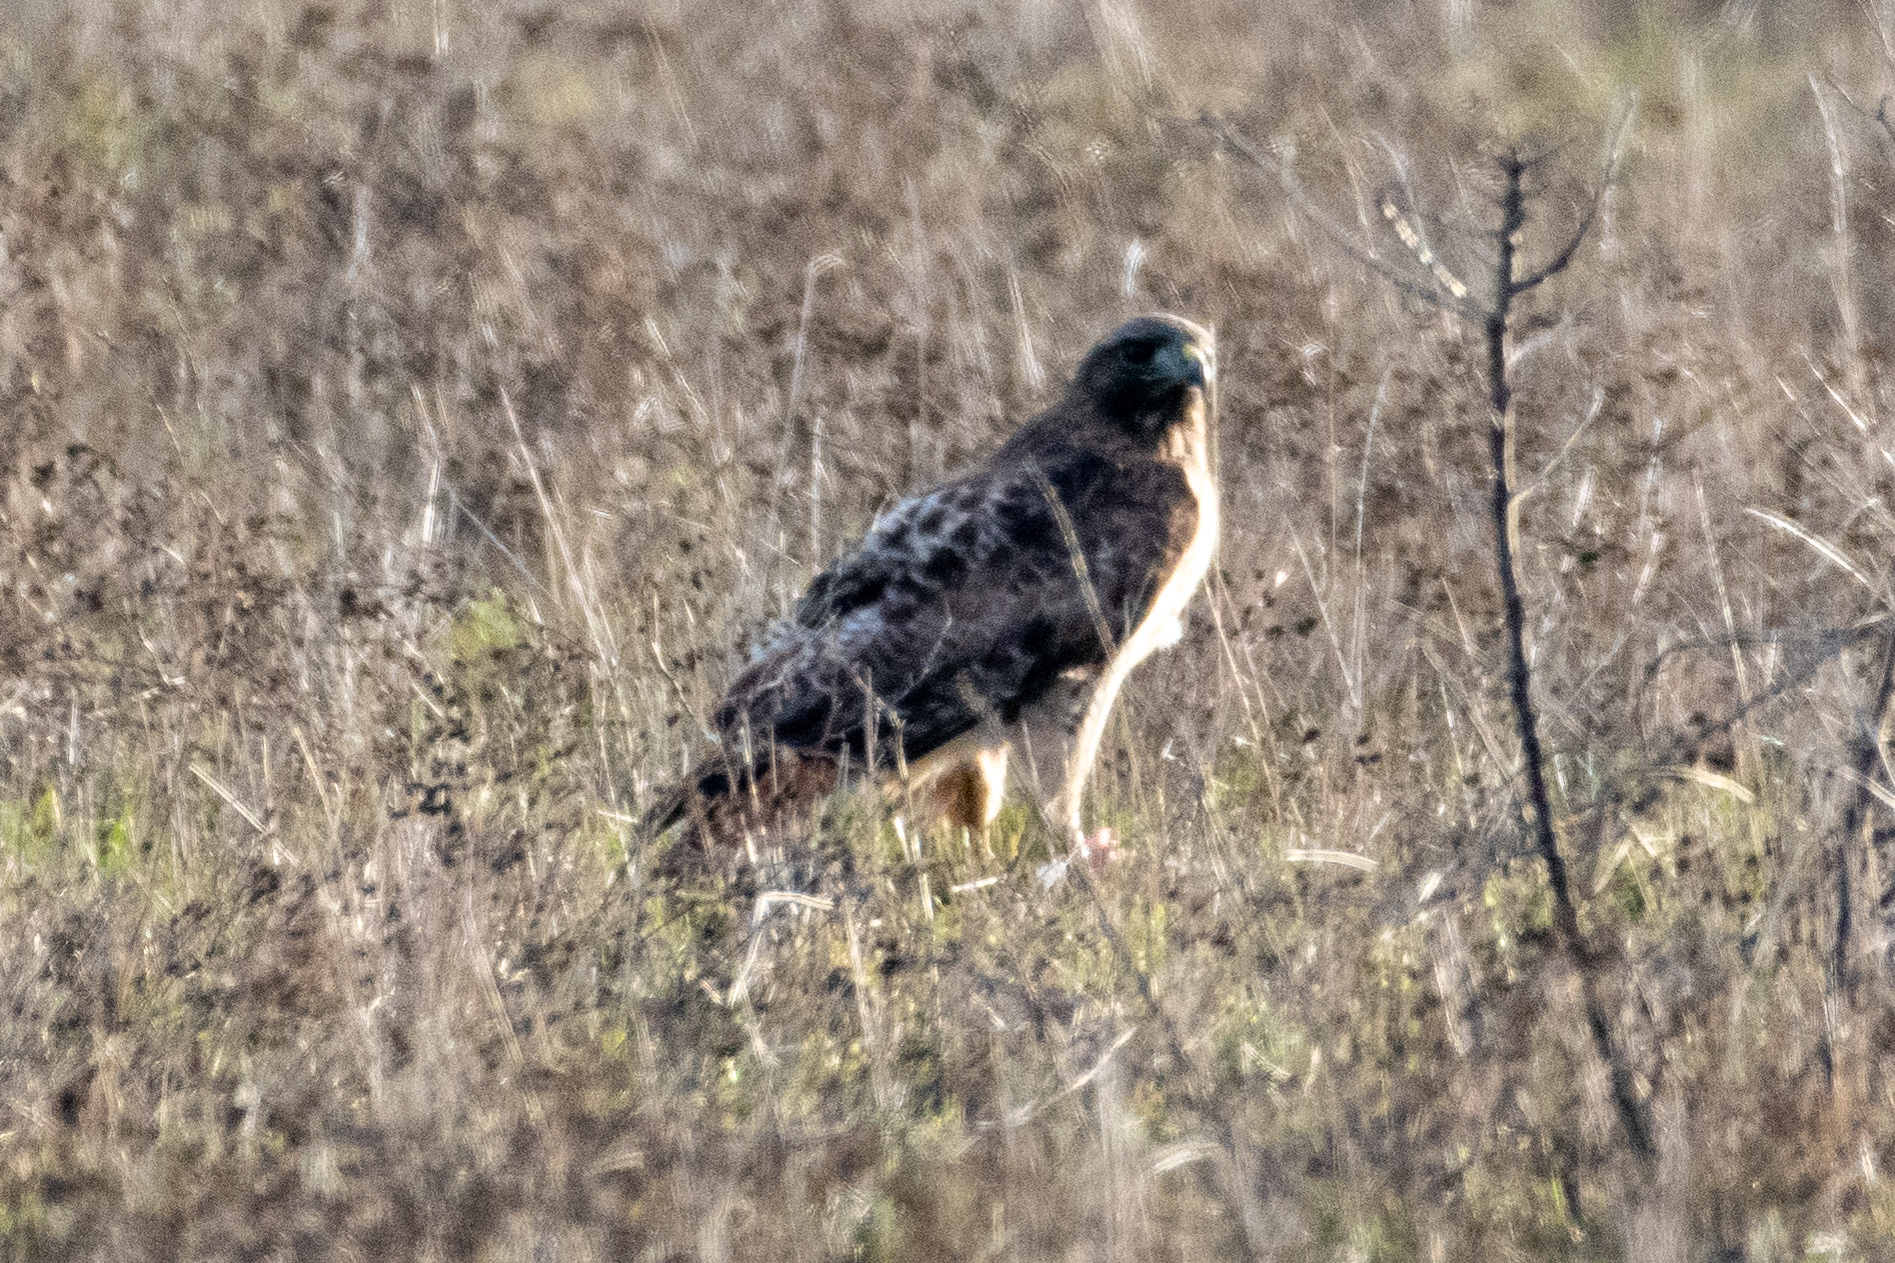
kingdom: Animalia
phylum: Chordata
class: Aves
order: Accipitriformes
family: Accipitridae
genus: Buteo
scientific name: Buteo jamaicensis
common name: Red-tailed hawk
